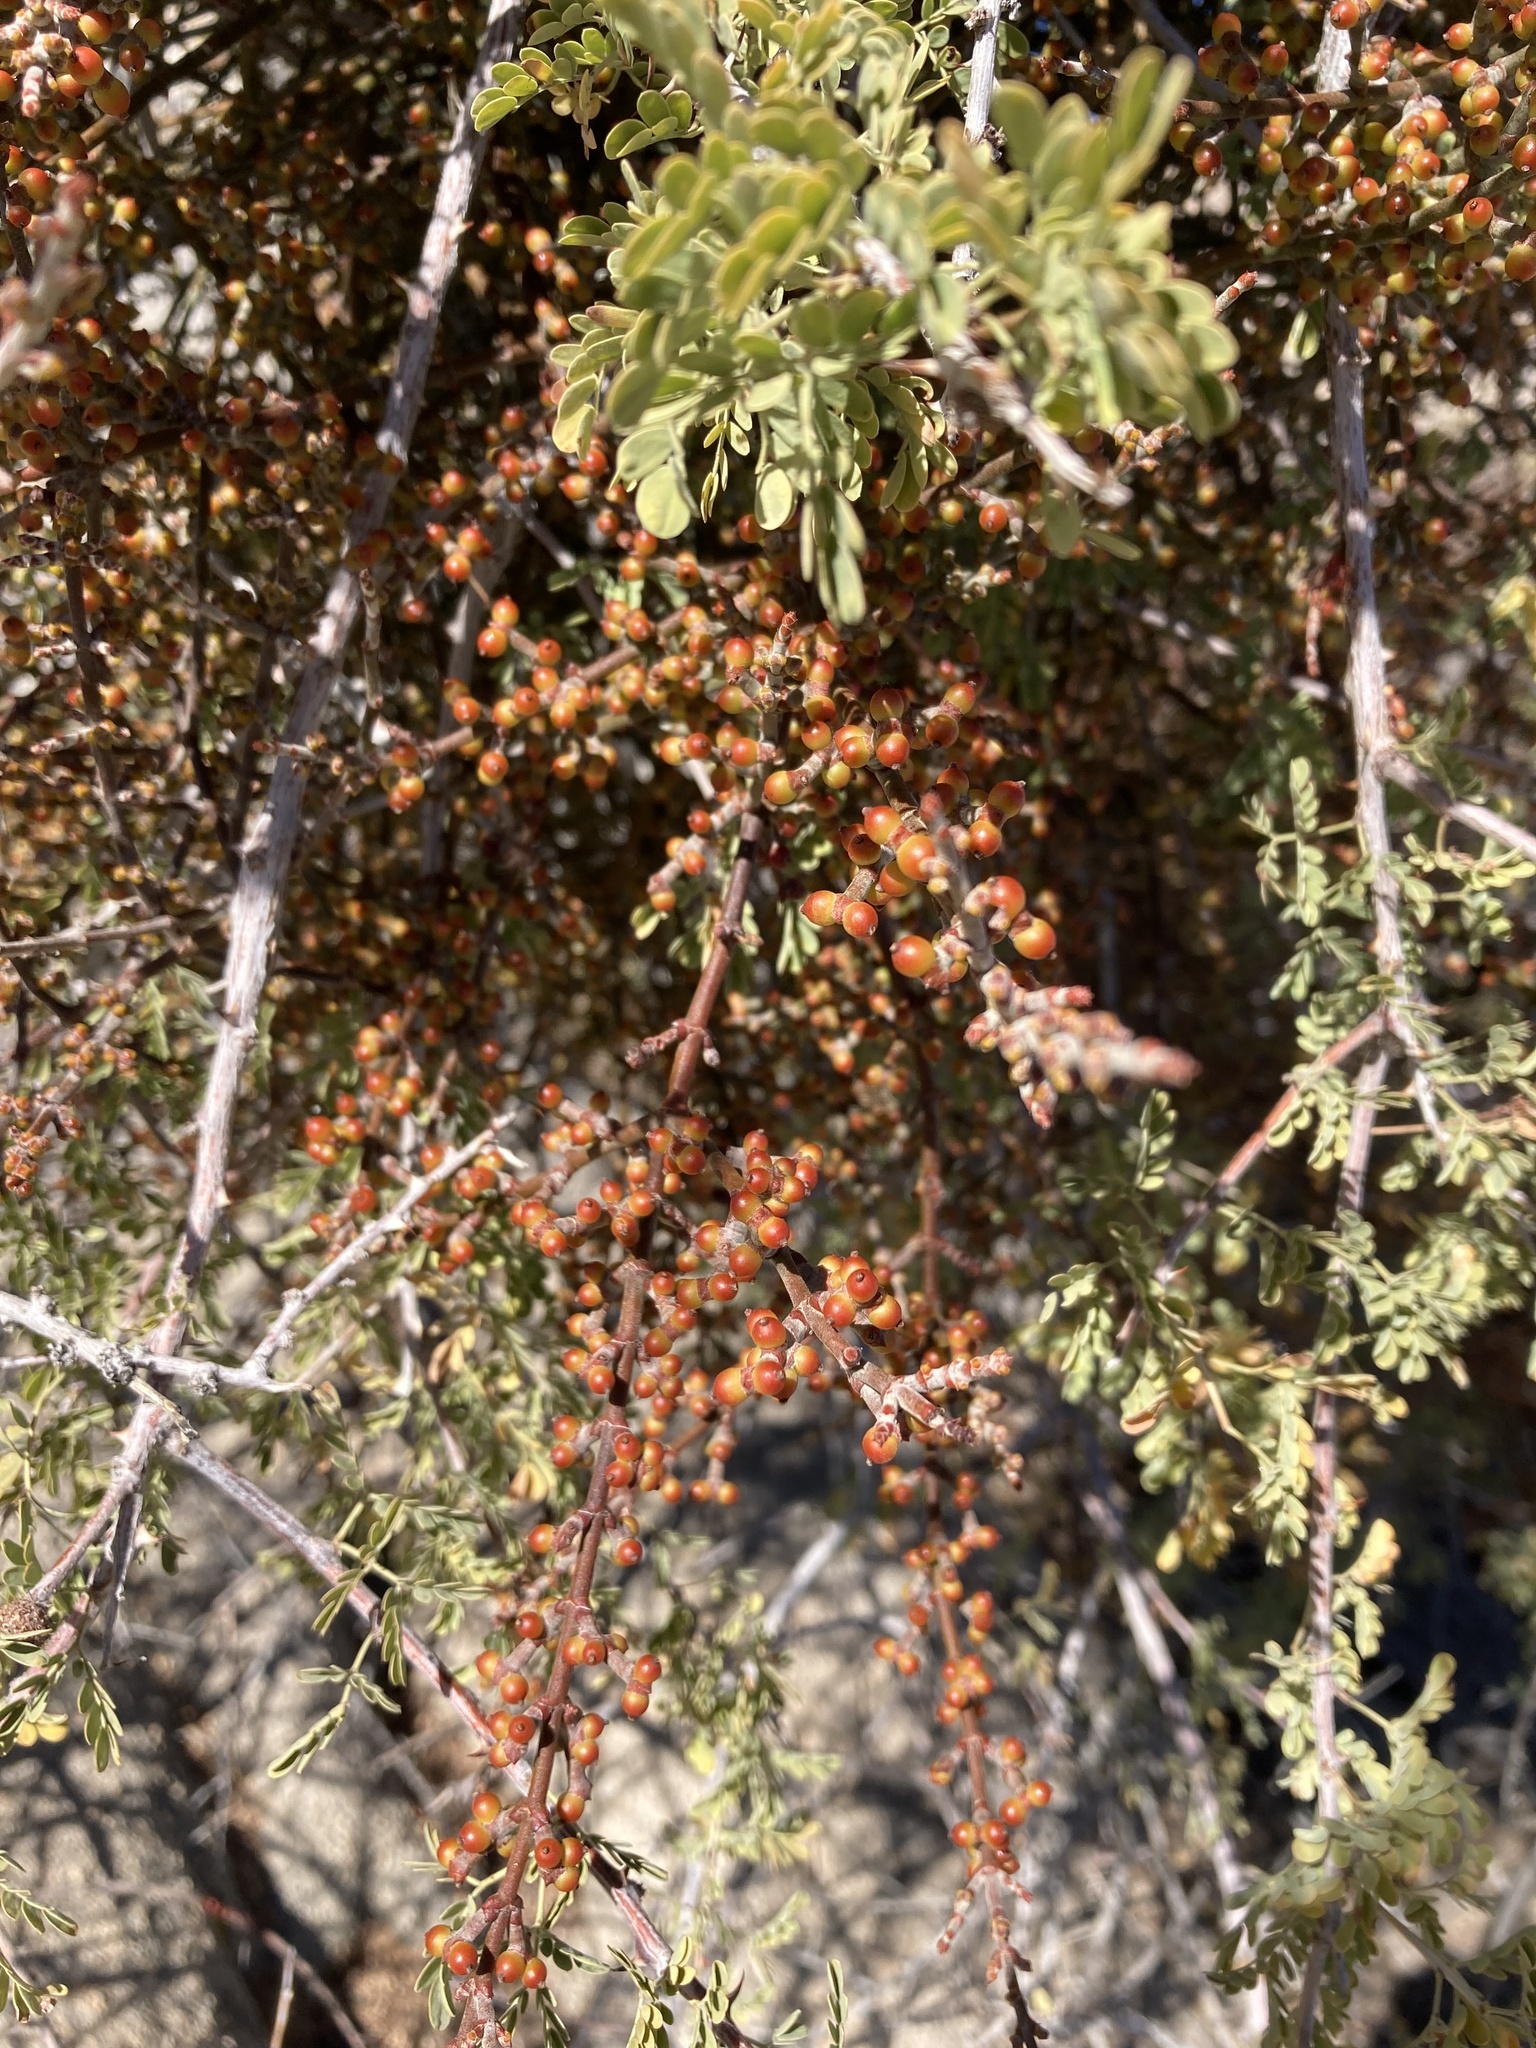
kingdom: Plantae
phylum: Tracheophyta
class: Magnoliopsida
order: Santalales
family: Viscaceae
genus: Phoradendron
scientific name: Phoradendron californicum
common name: Acacia mistletoe
